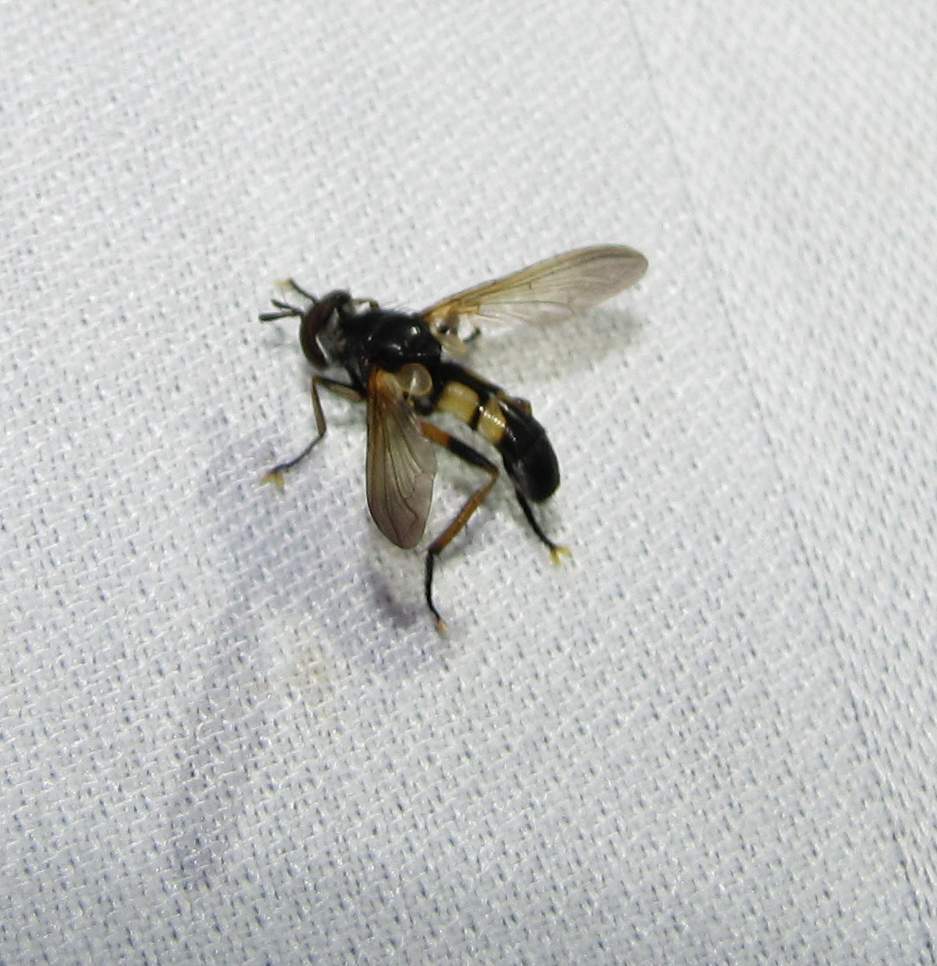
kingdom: Animalia
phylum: Arthropoda
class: Insecta
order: Diptera
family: Tachinidae
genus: Hemyda
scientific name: Hemyda aurata
